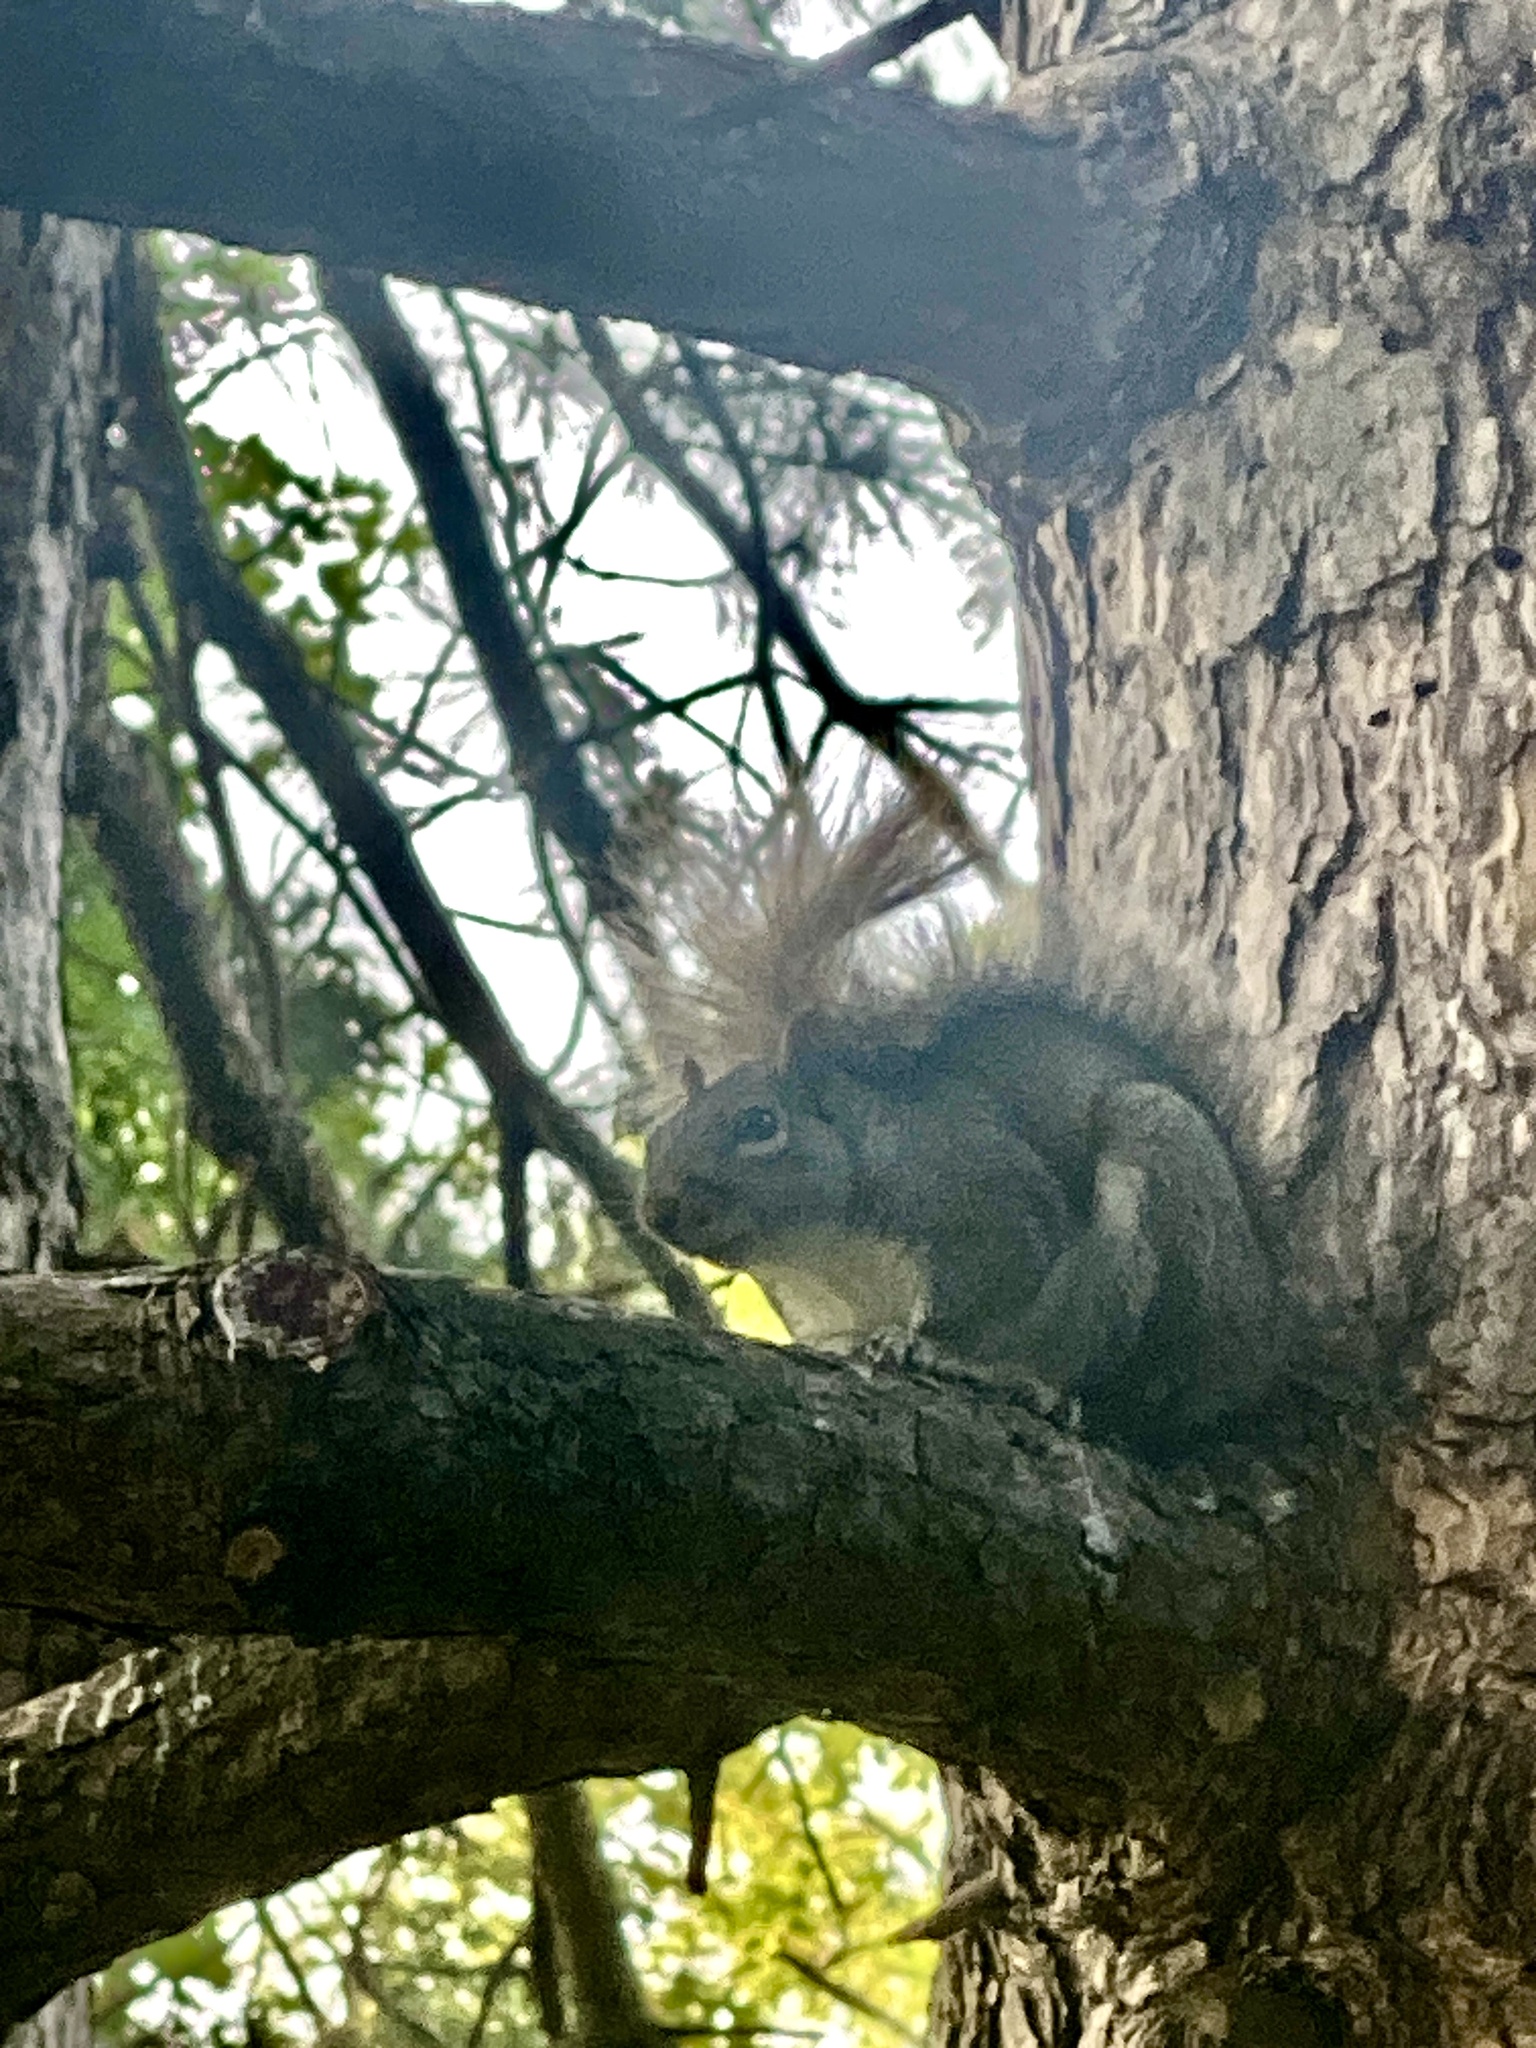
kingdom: Animalia
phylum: Chordata
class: Mammalia
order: Rodentia
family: Sciuridae
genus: Sciurus
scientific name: Sciurus carolinensis
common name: Eastern gray squirrel
